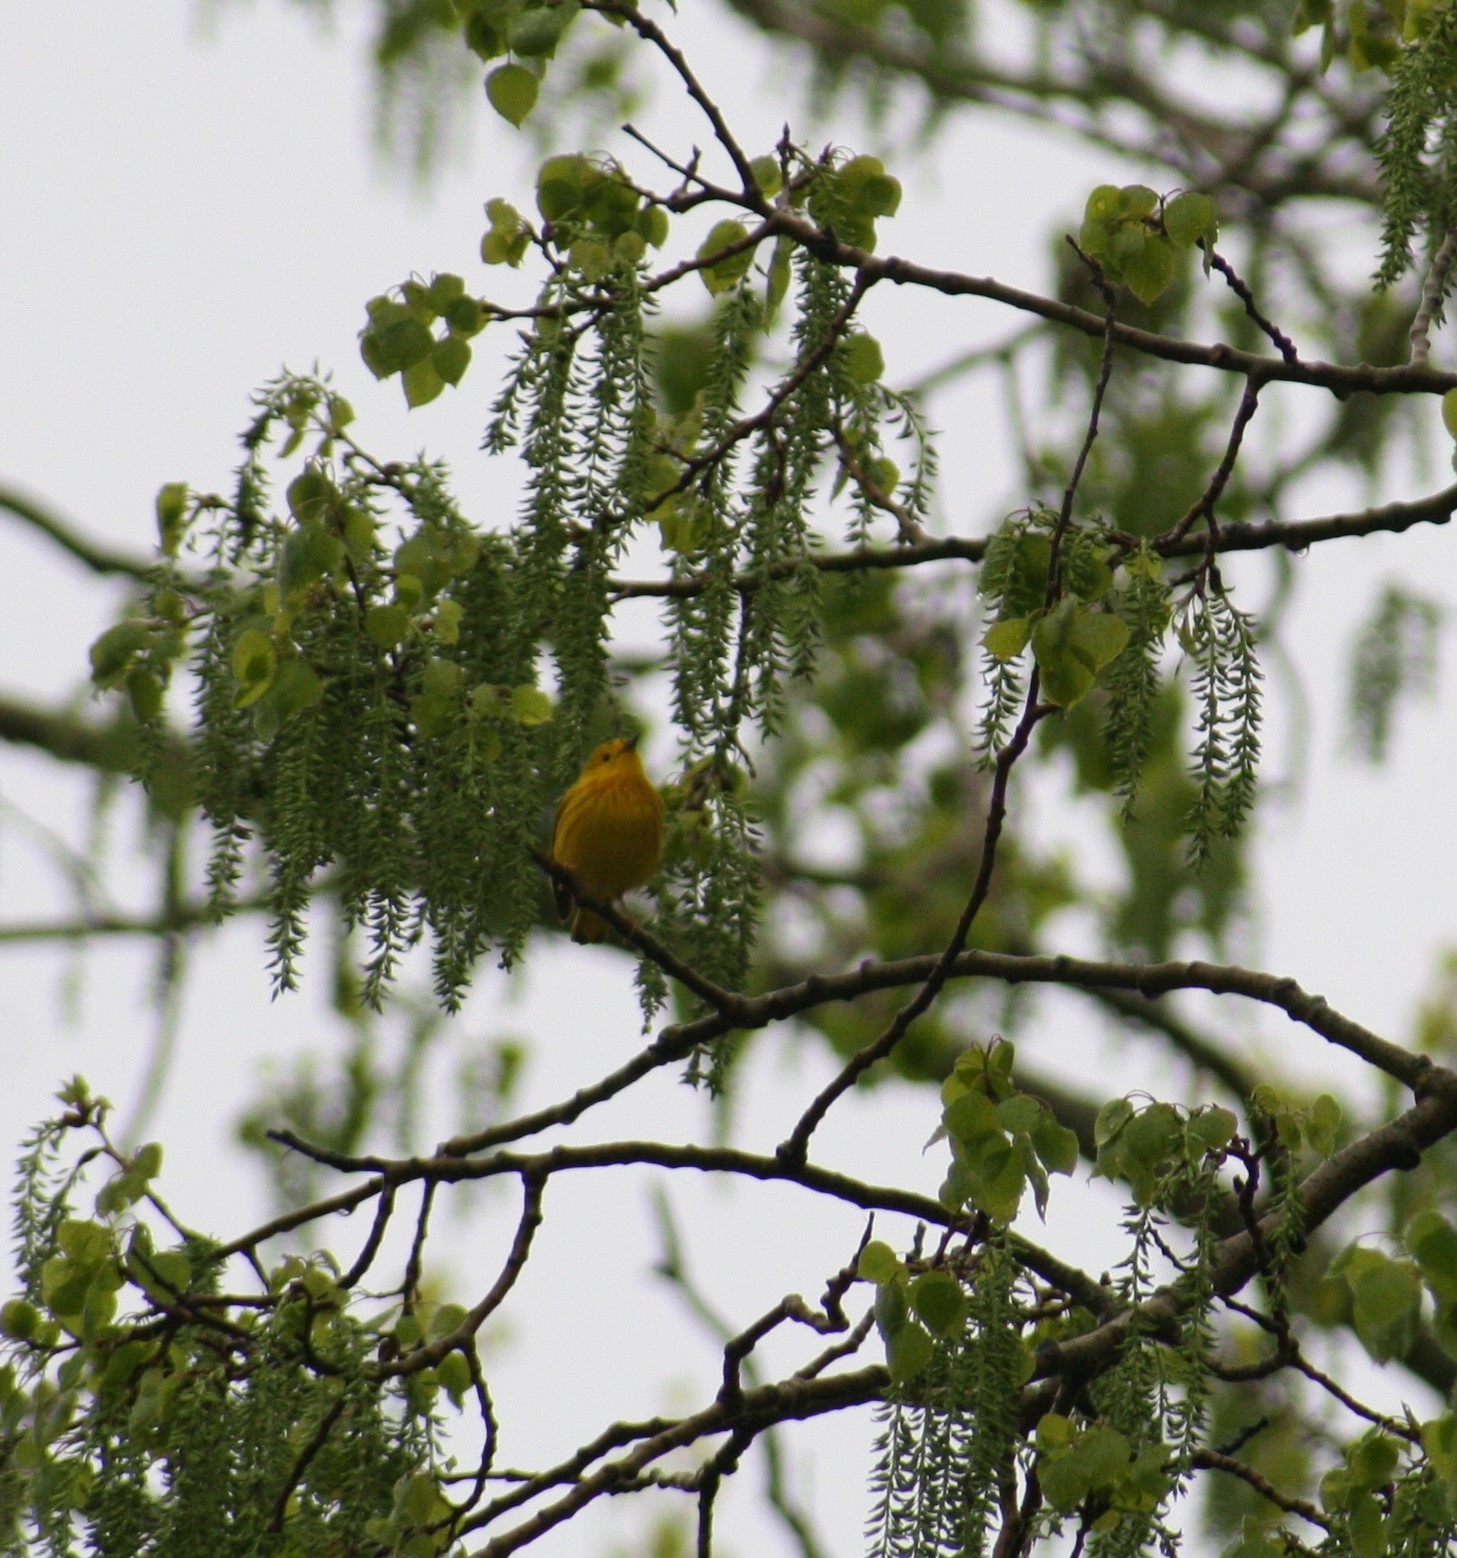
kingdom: Animalia
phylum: Chordata
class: Aves
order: Passeriformes
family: Parulidae
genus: Setophaga
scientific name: Setophaga petechia
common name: Yellow warbler
